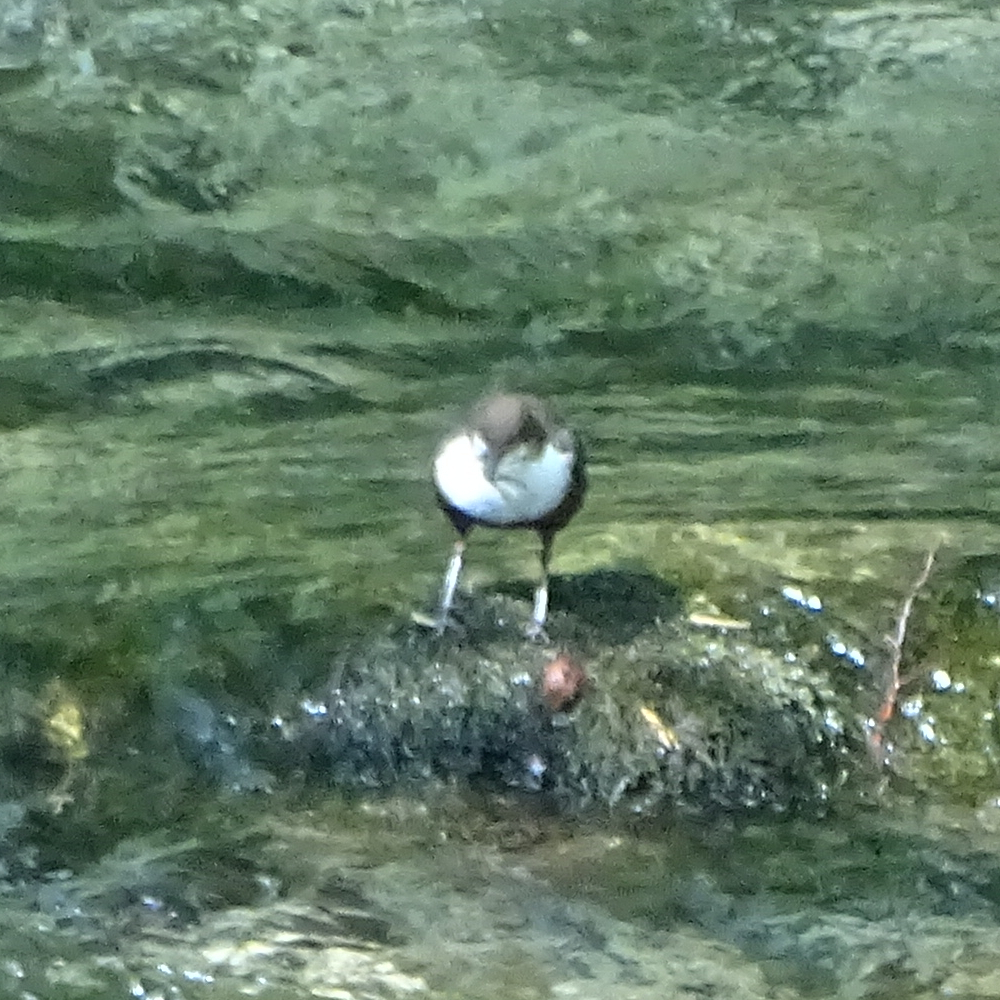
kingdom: Animalia
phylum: Chordata
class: Aves
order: Passeriformes
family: Cinclidae
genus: Cinclus
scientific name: Cinclus cinclus
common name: White-throated dipper
